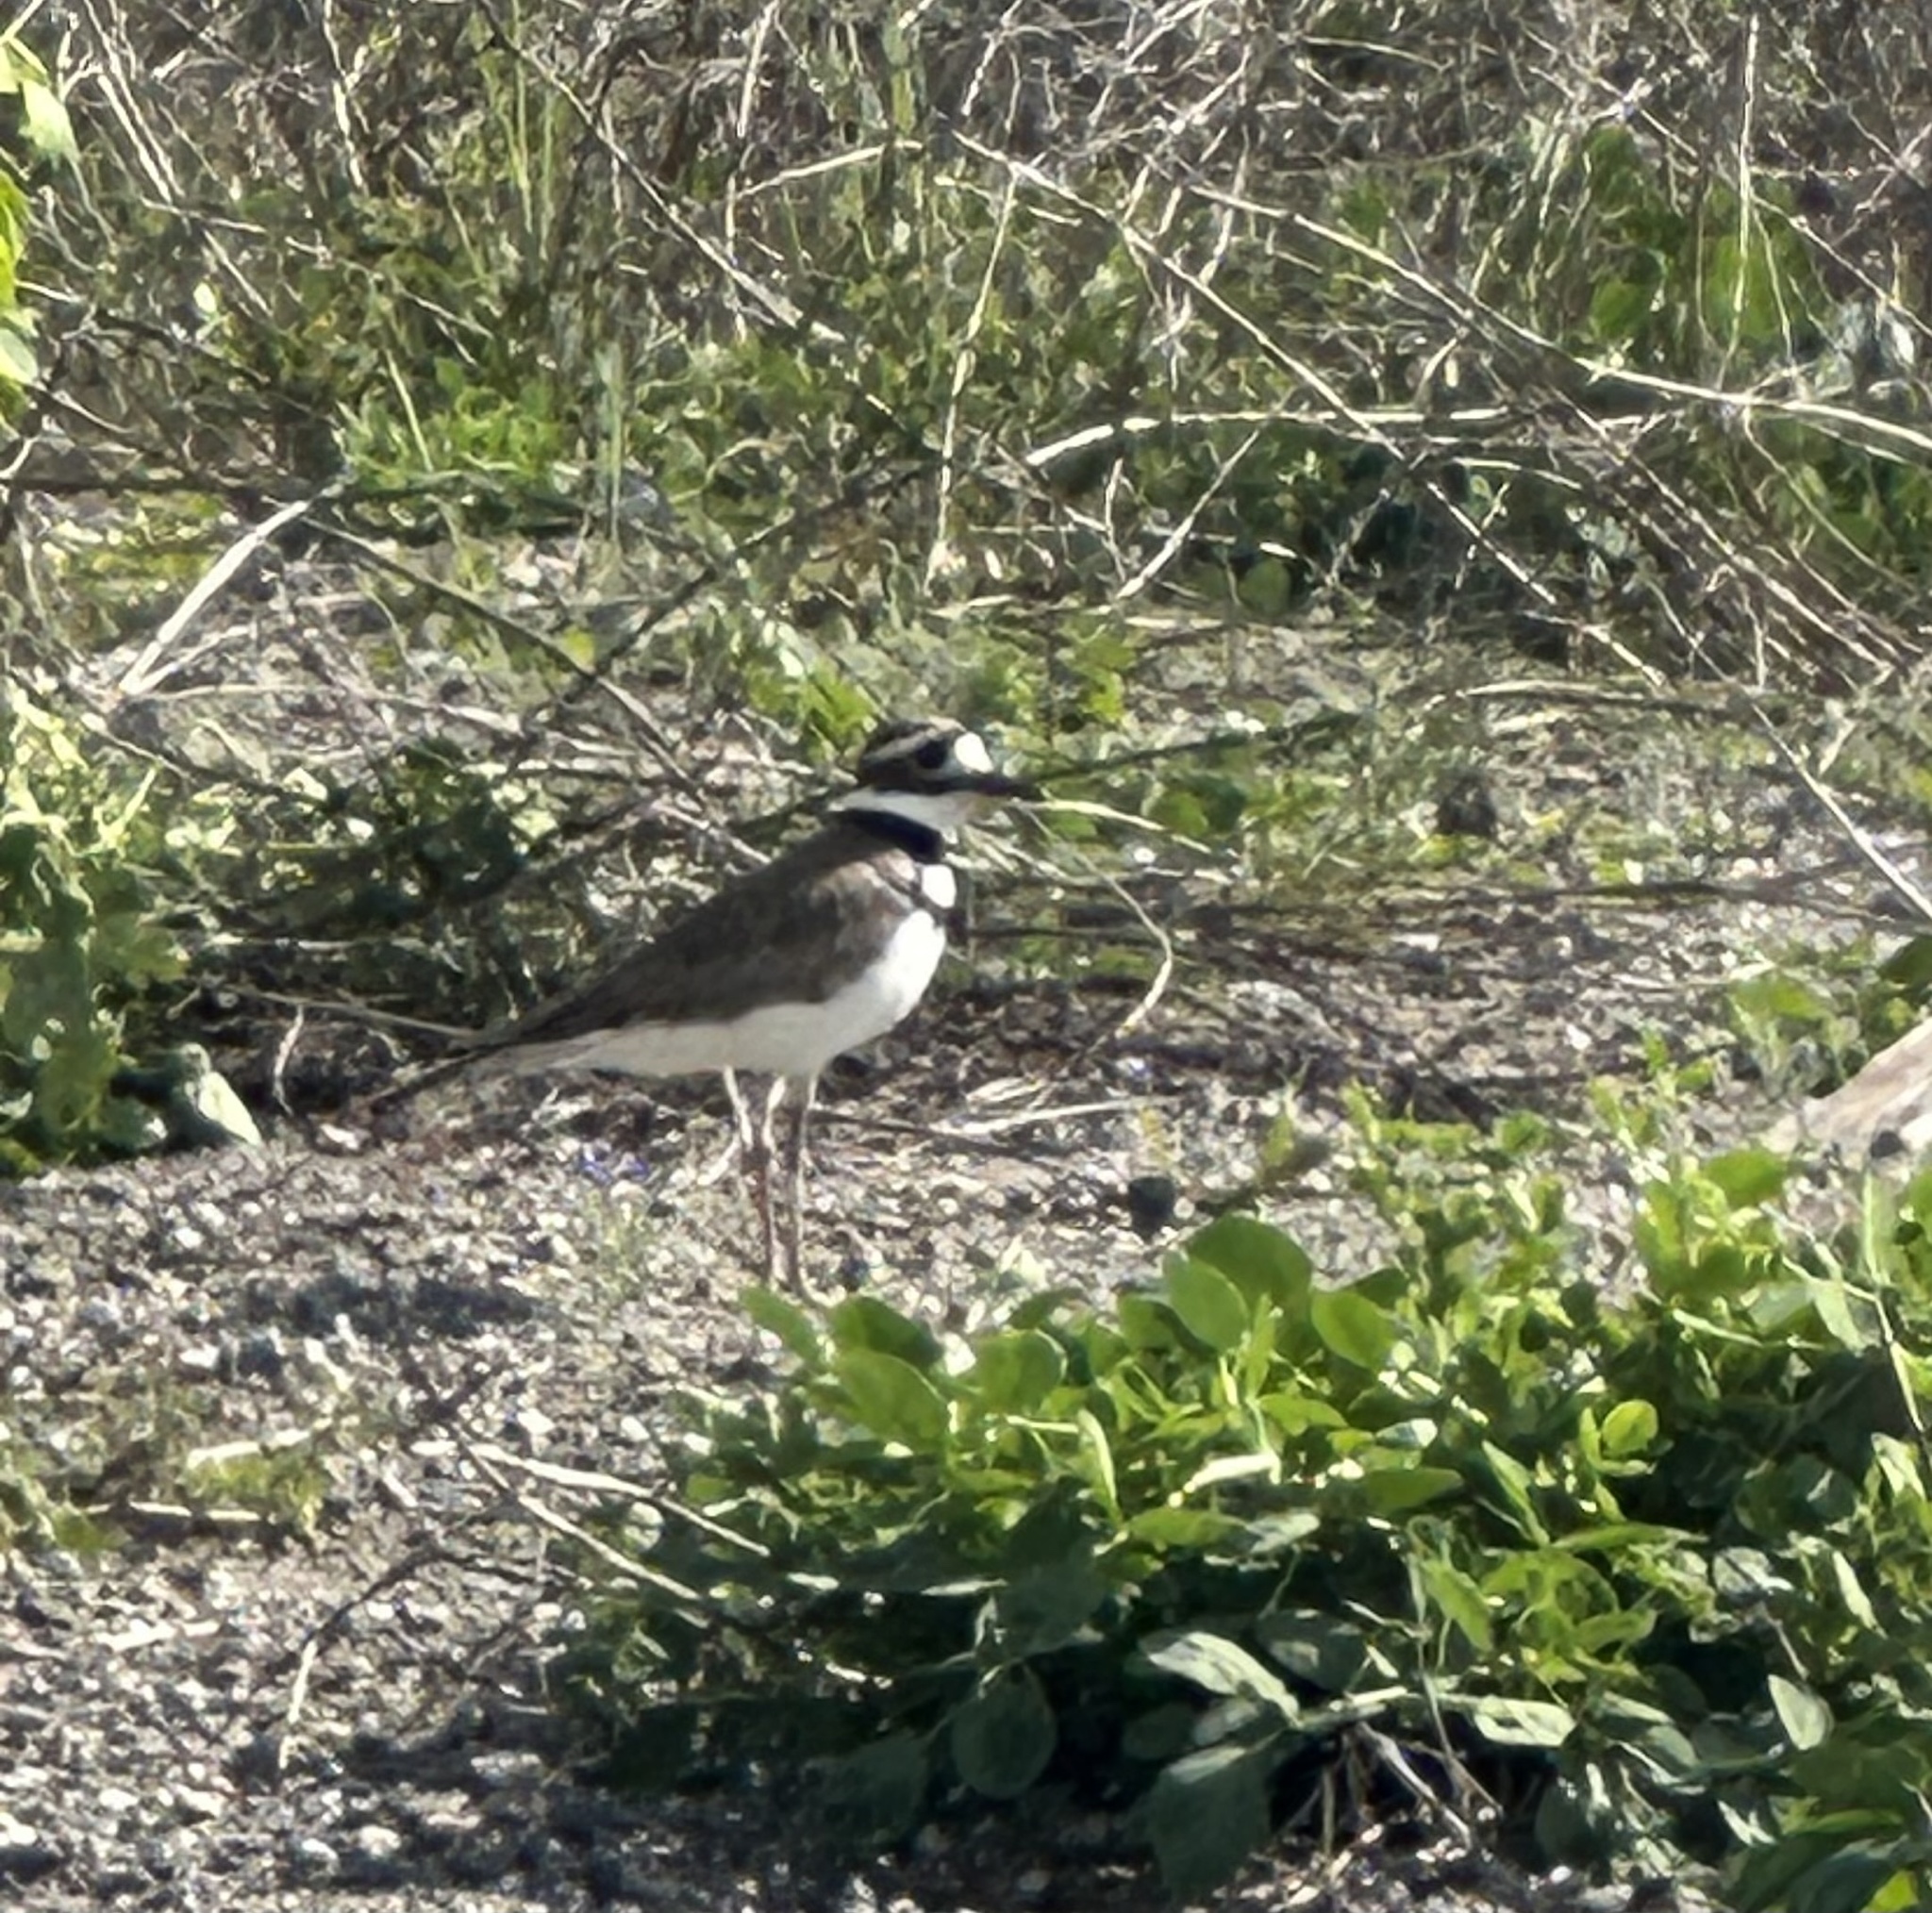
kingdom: Animalia
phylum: Chordata
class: Aves
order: Charadriiformes
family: Charadriidae
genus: Charadrius
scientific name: Charadrius vociferus
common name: Killdeer
